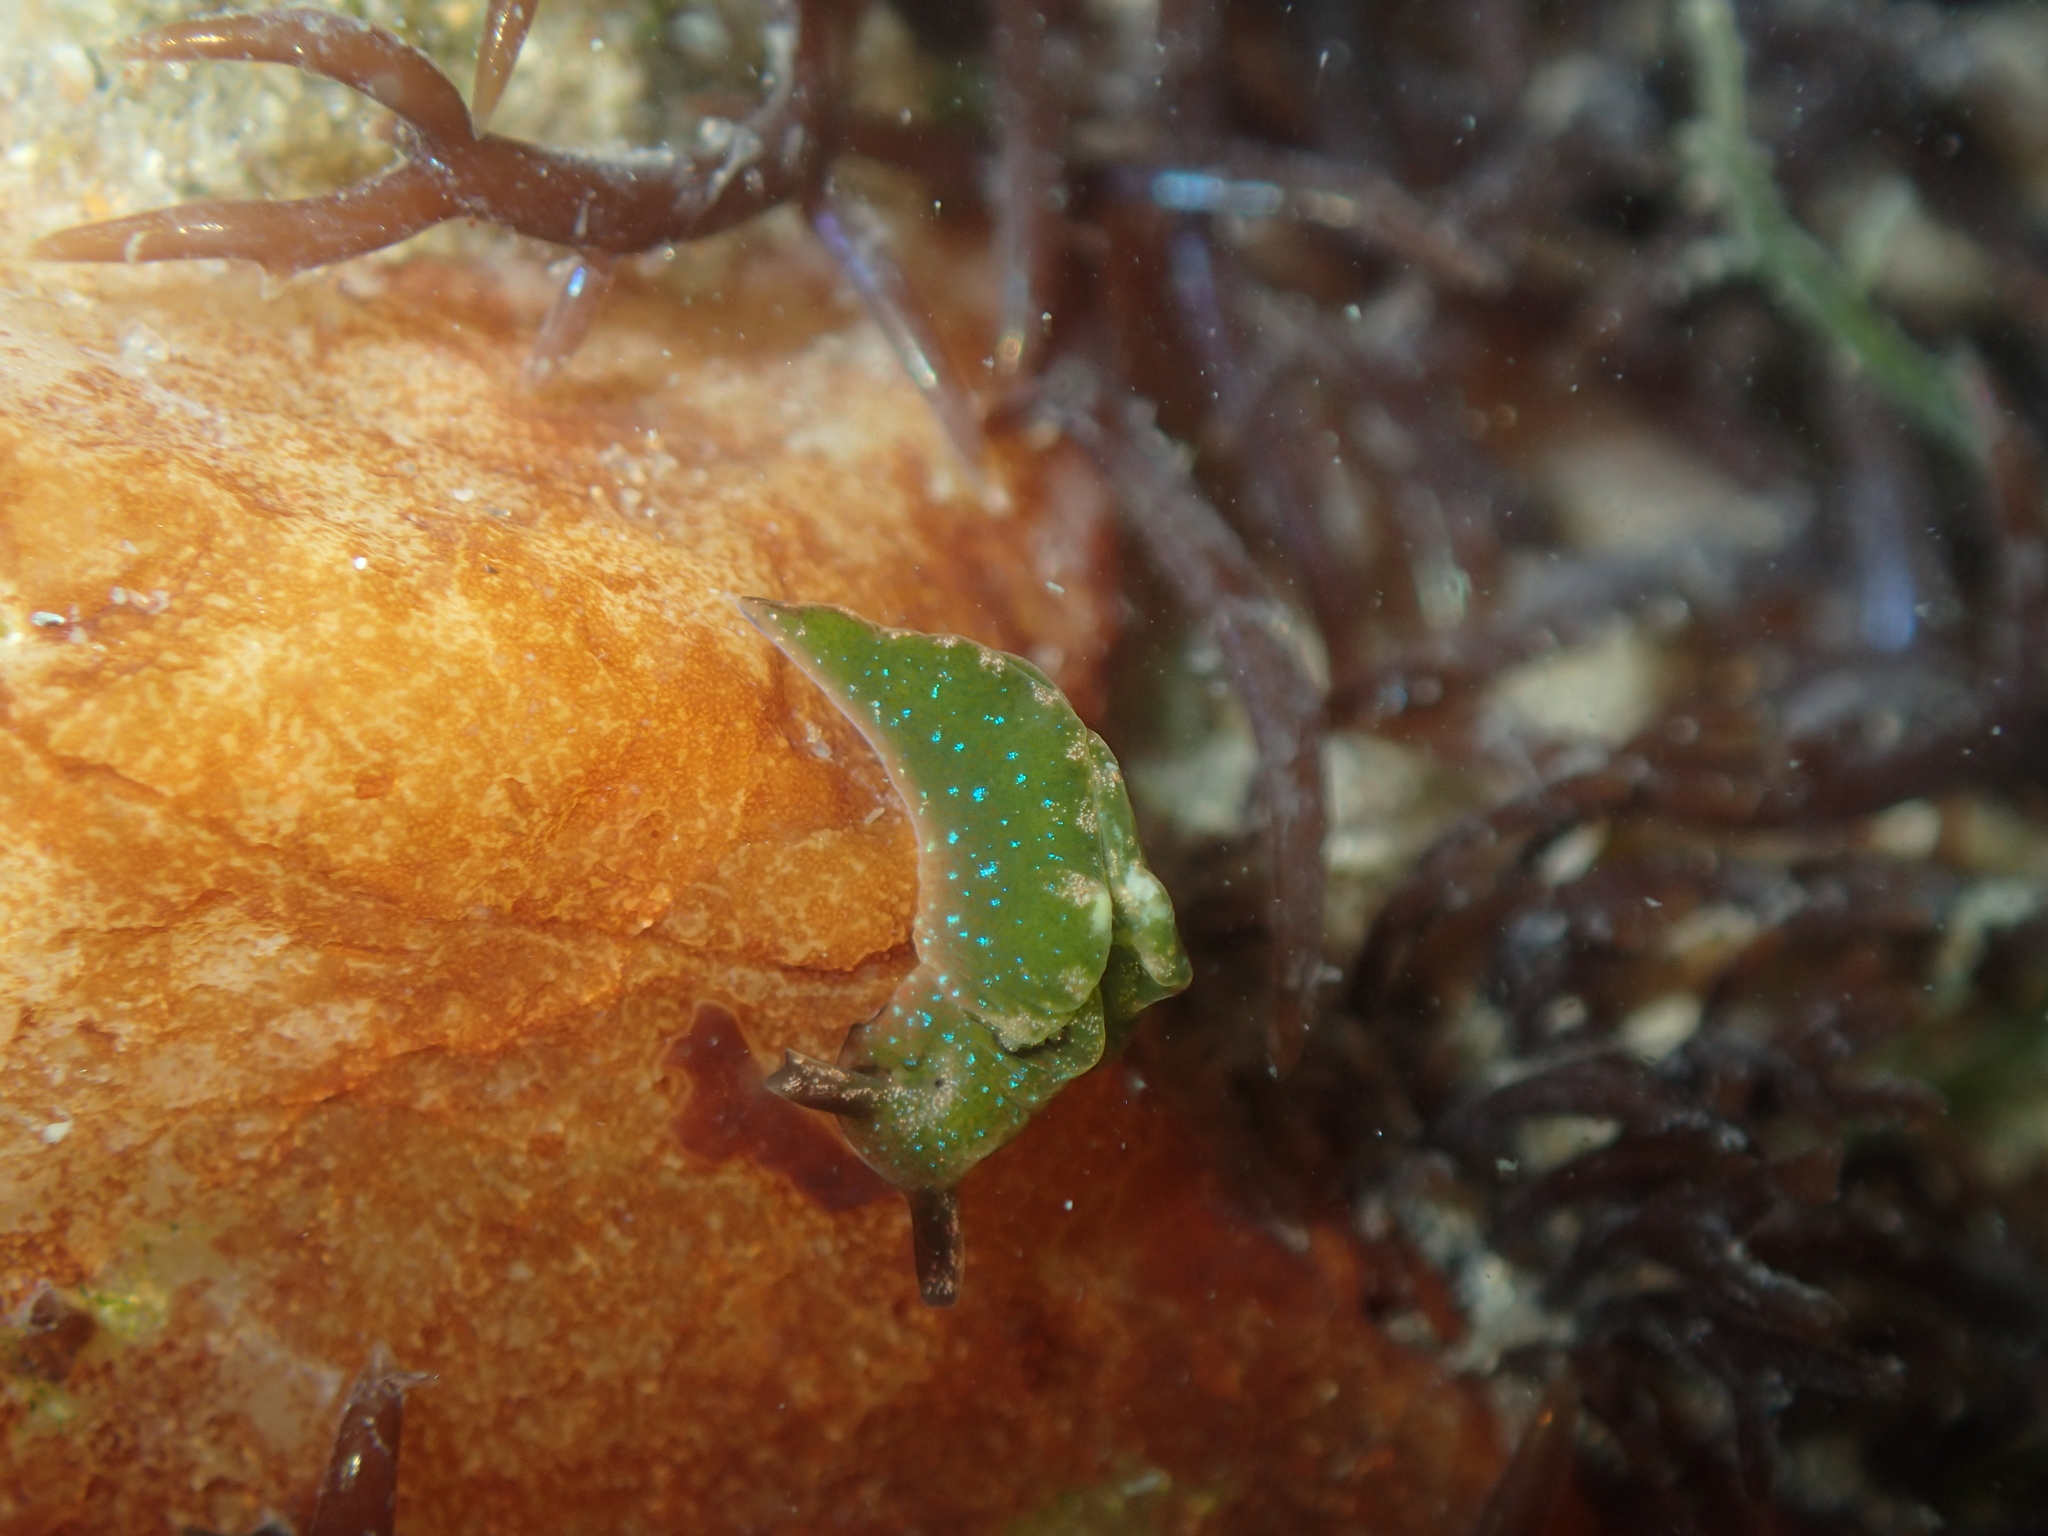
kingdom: Animalia
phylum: Mollusca
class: Gastropoda
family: Plakobranchidae
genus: Elysia
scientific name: Elysia viridis
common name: Green elysia
